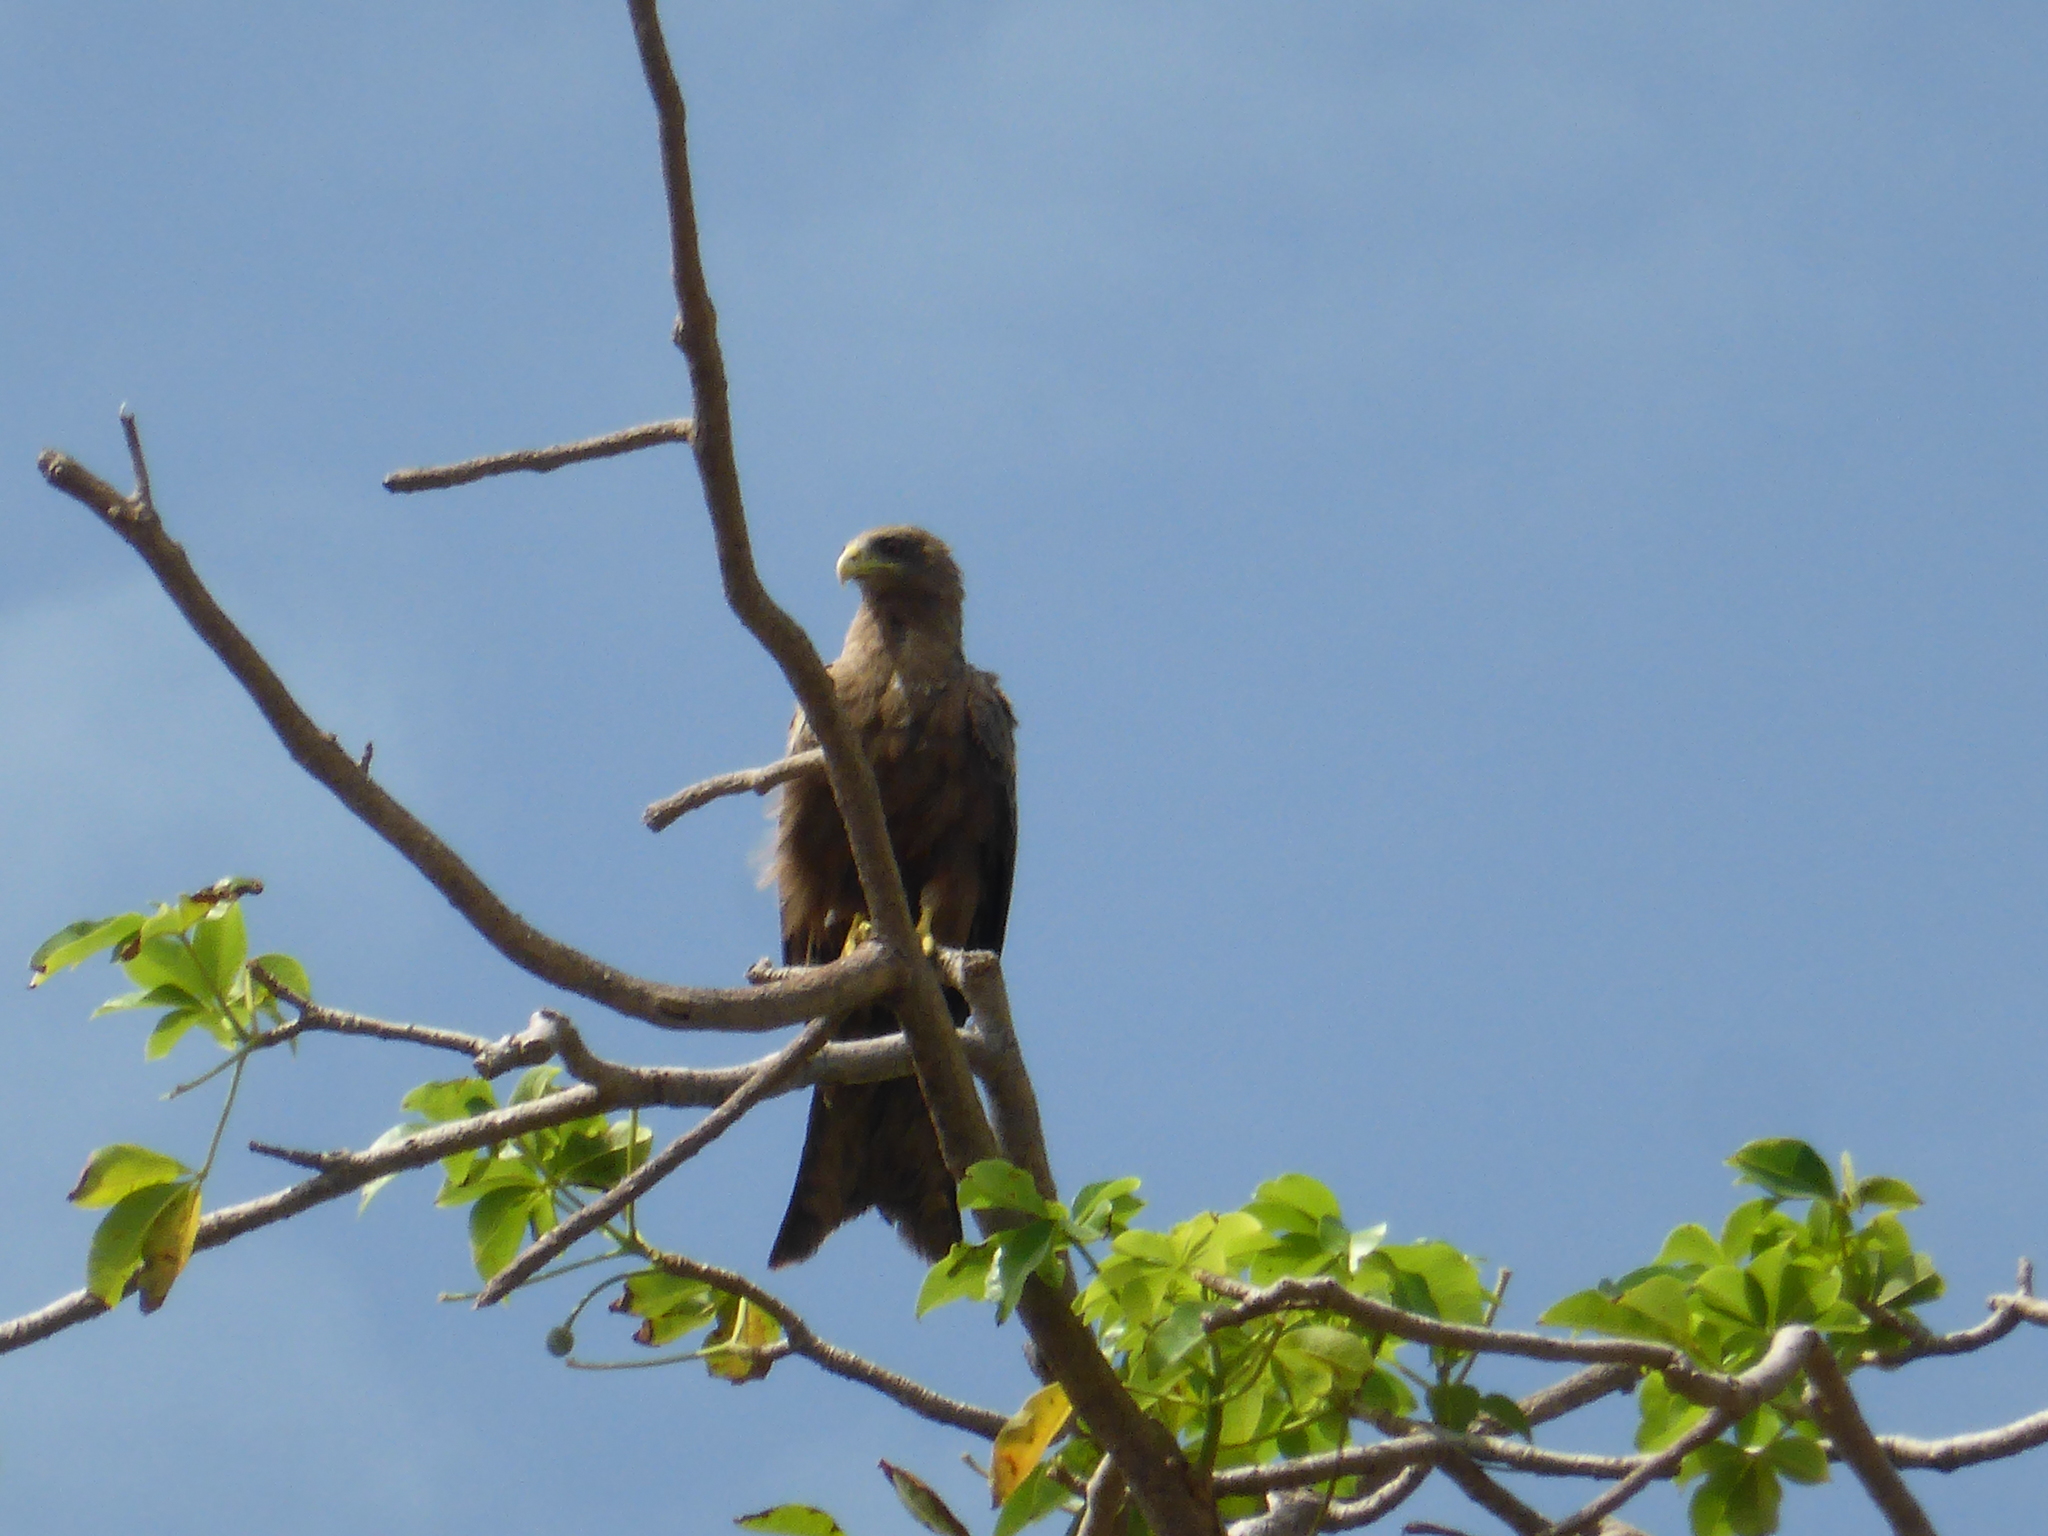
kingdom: Animalia
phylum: Chordata
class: Aves
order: Accipitriformes
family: Accipitridae
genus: Milvus
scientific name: Milvus migrans
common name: Black kite
